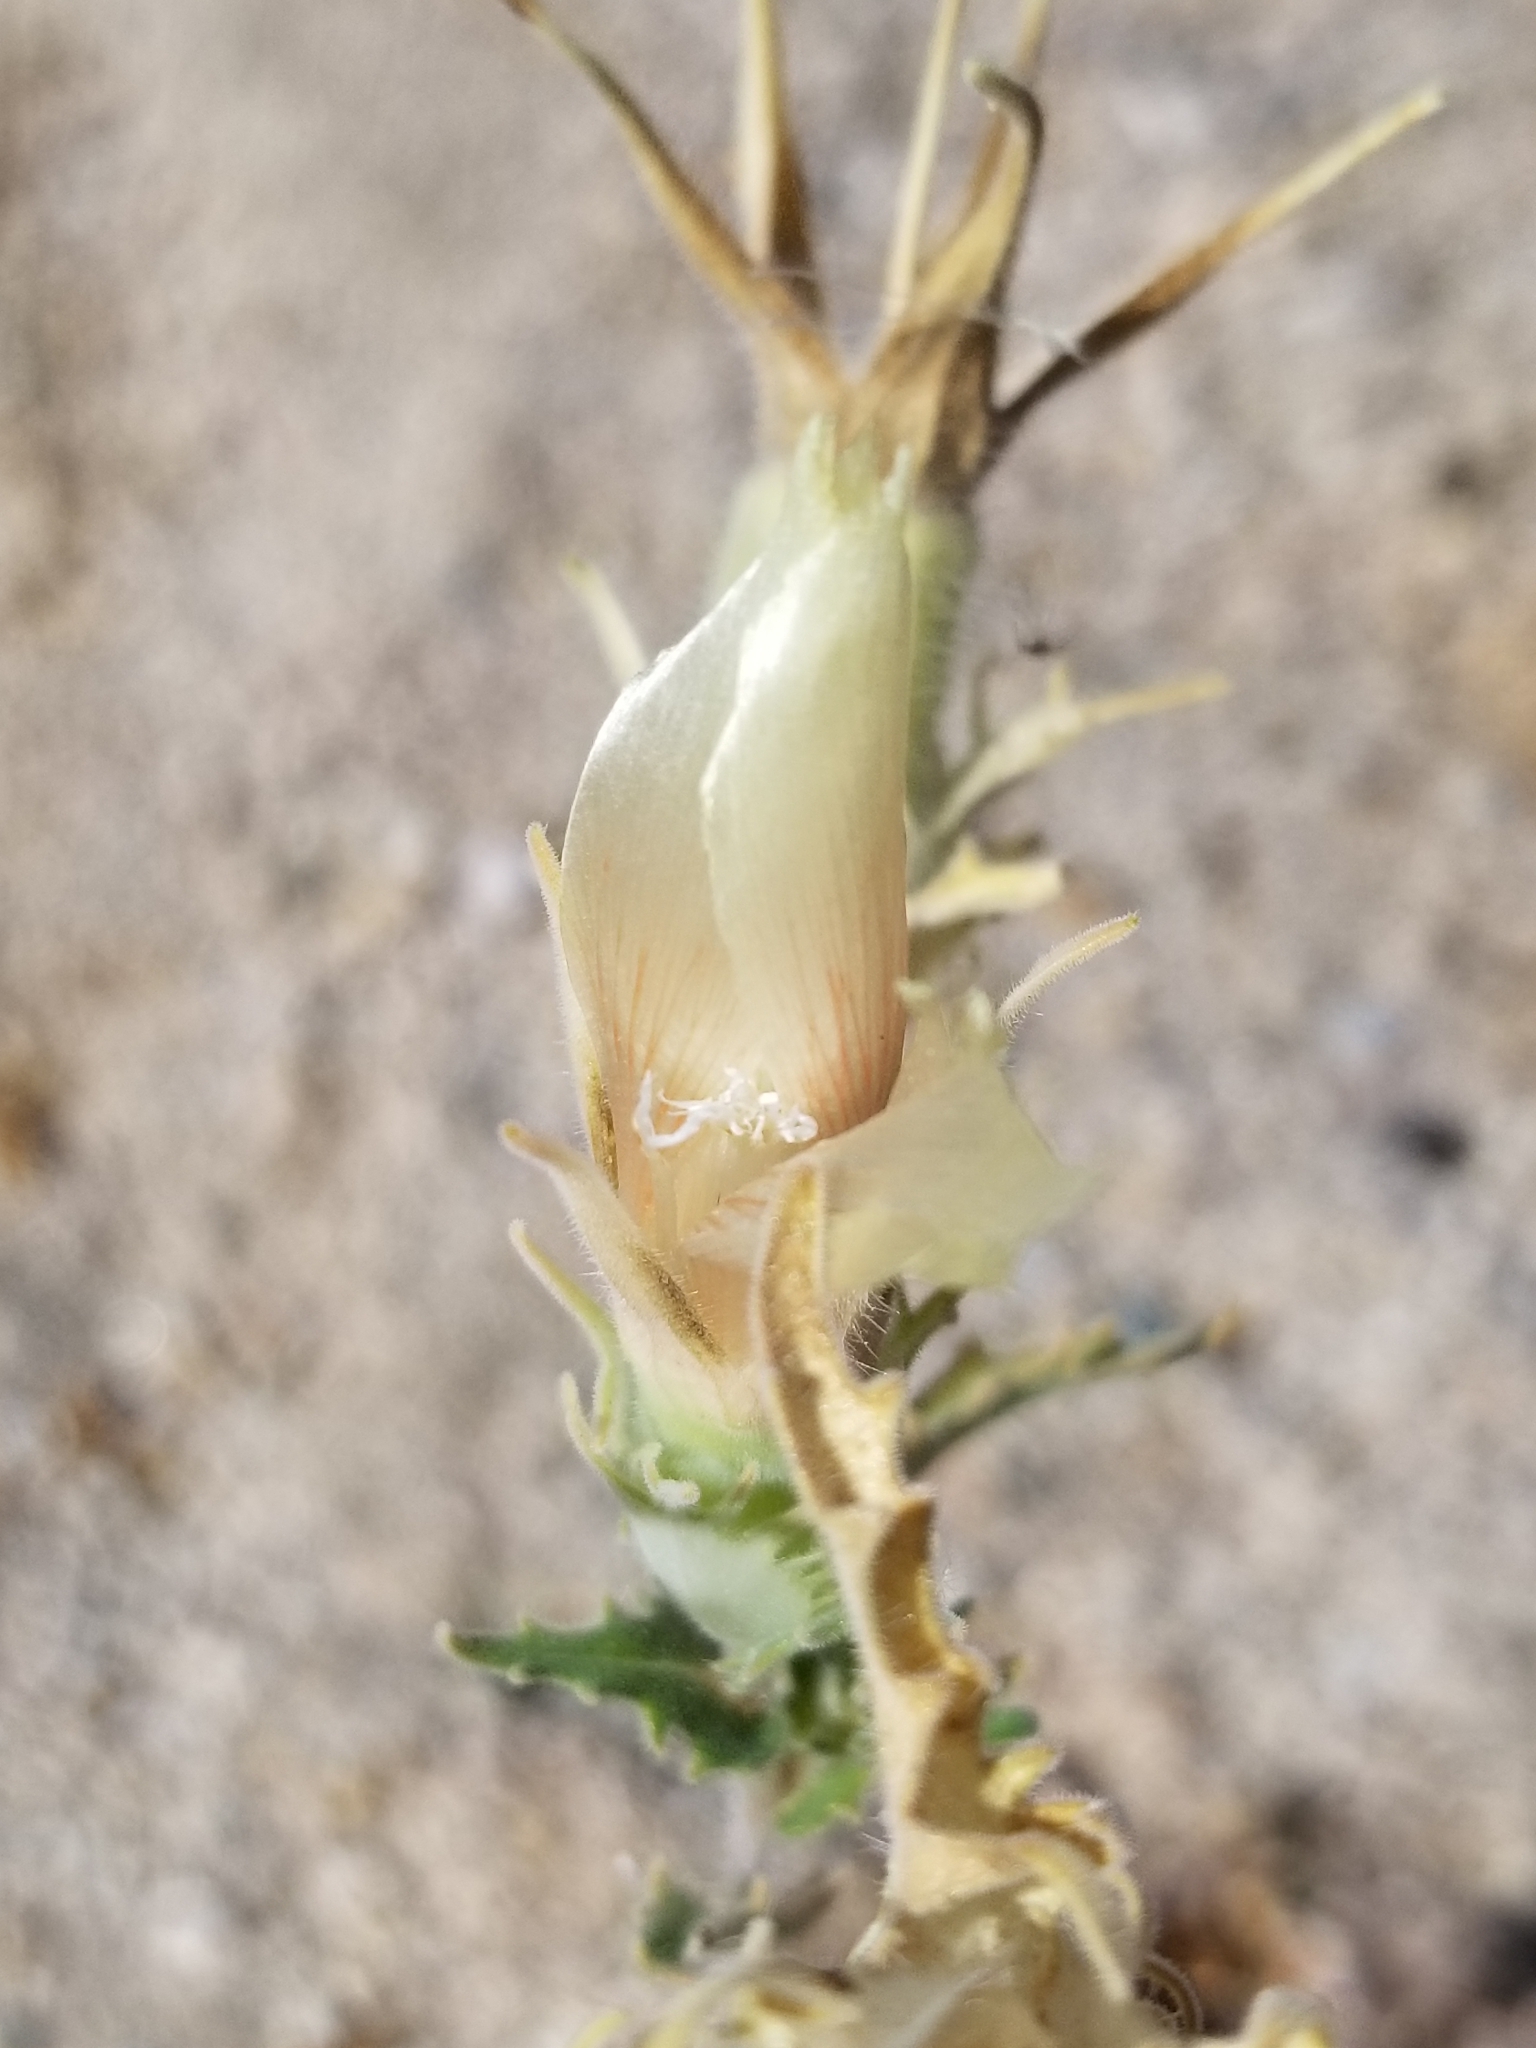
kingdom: Plantae
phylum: Tracheophyta
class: Magnoliopsida
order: Cornales
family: Loasaceae
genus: Mentzelia
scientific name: Mentzelia involucrata
